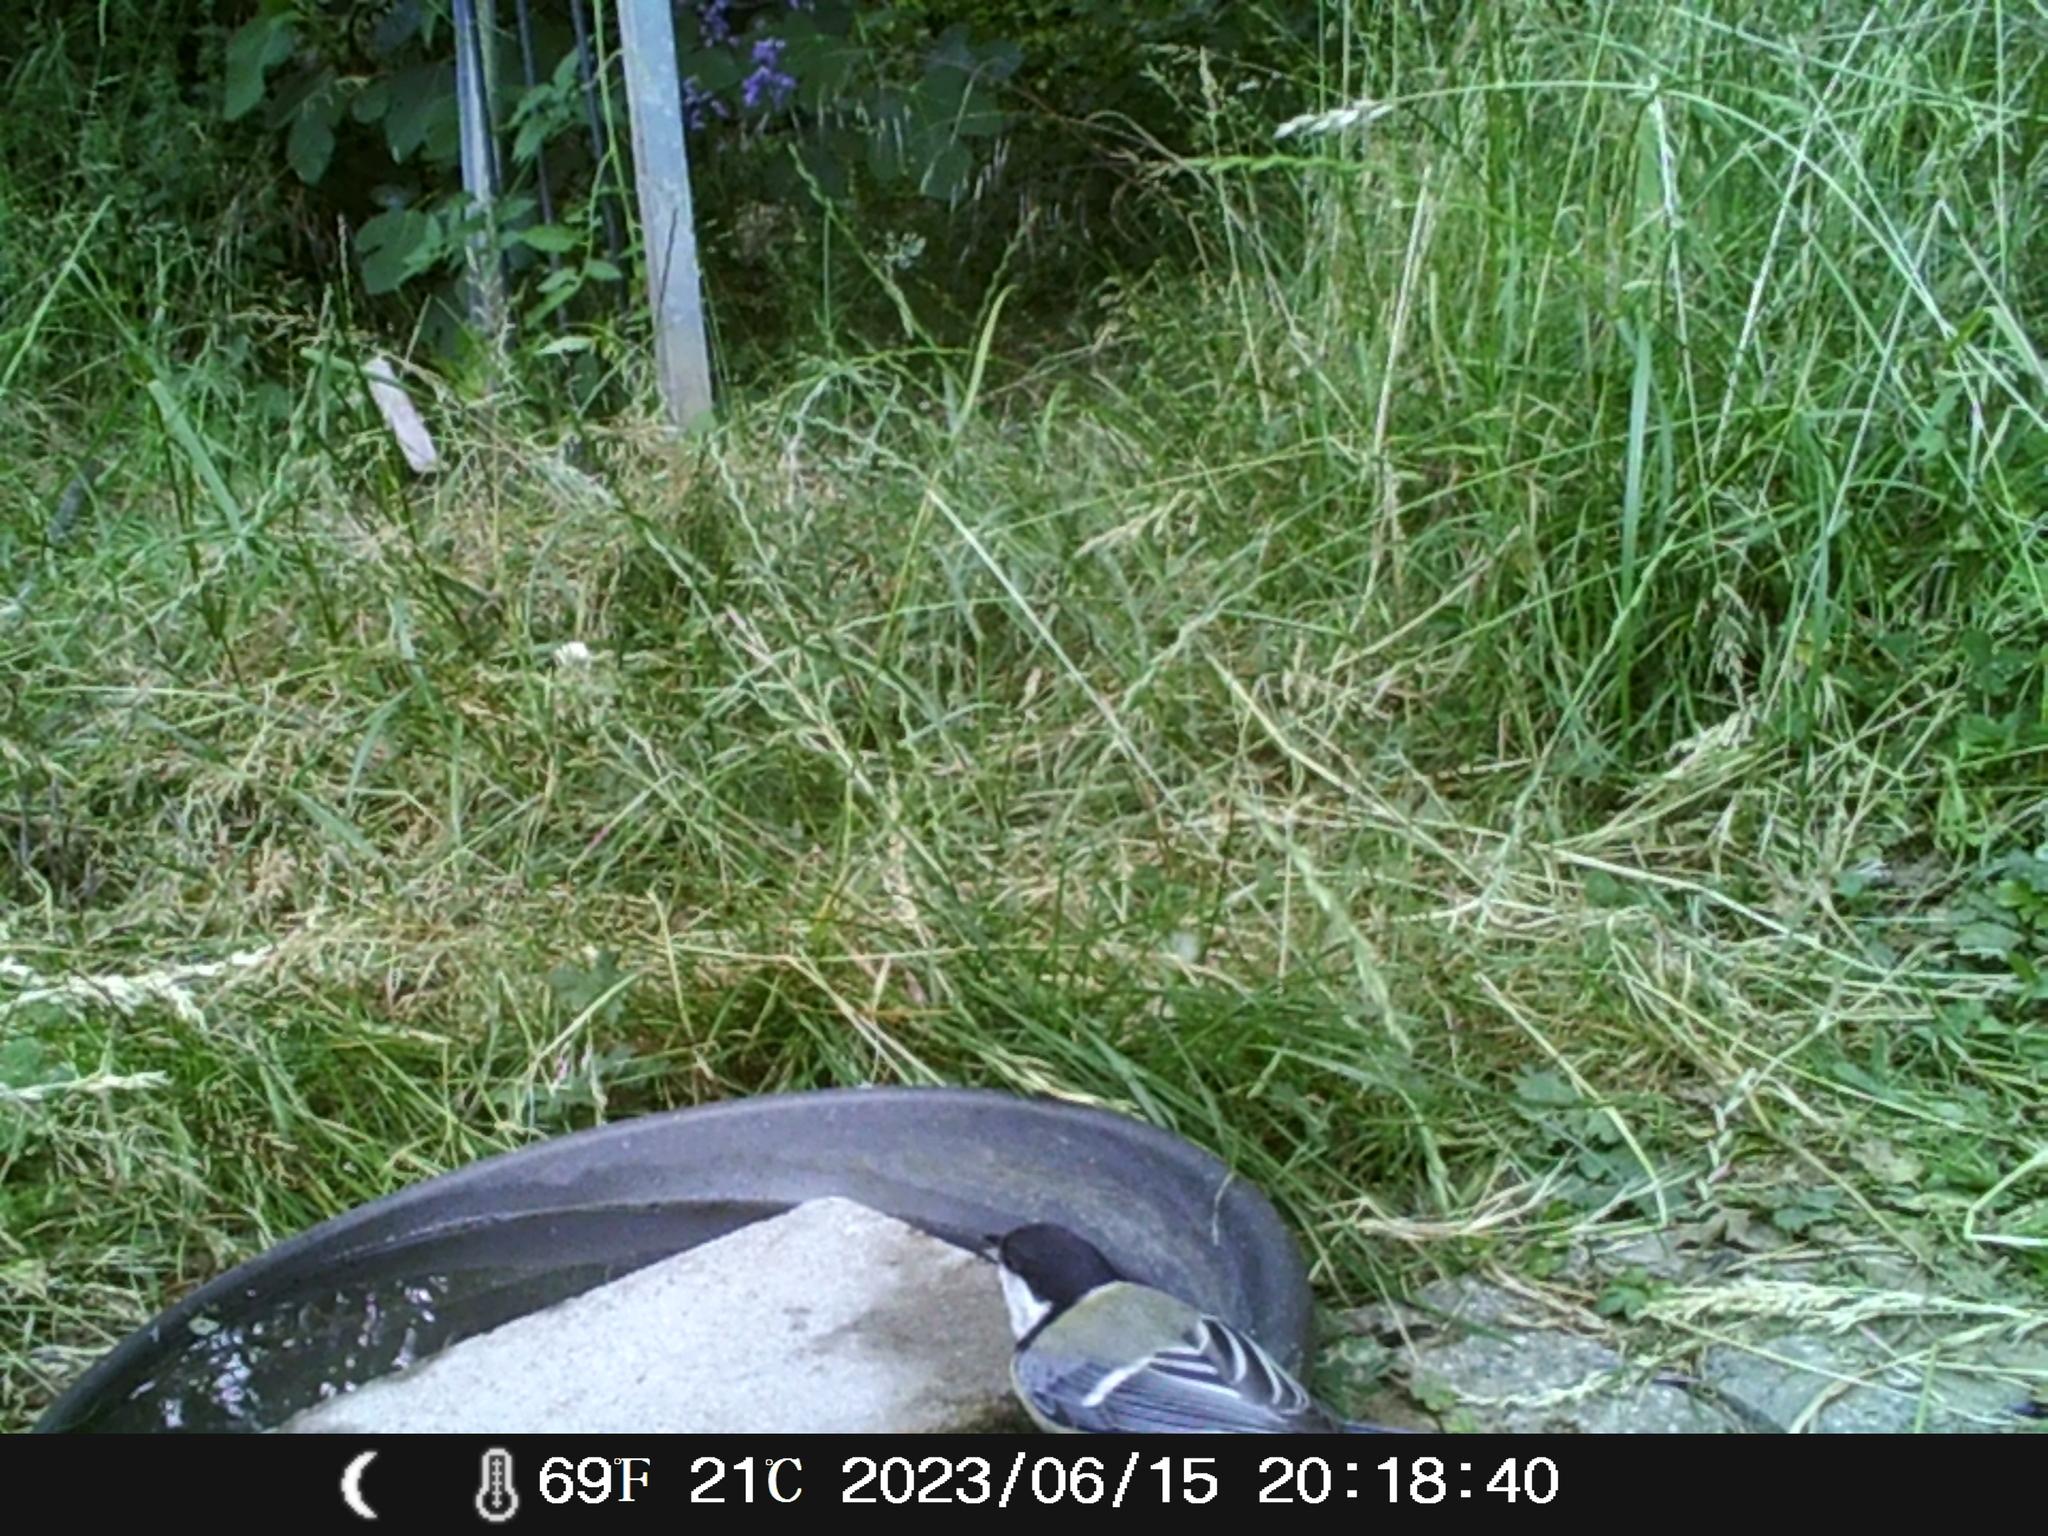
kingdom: Animalia
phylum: Chordata
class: Aves
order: Passeriformes
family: Paridae
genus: Parus
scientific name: Parus major
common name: Great tit
